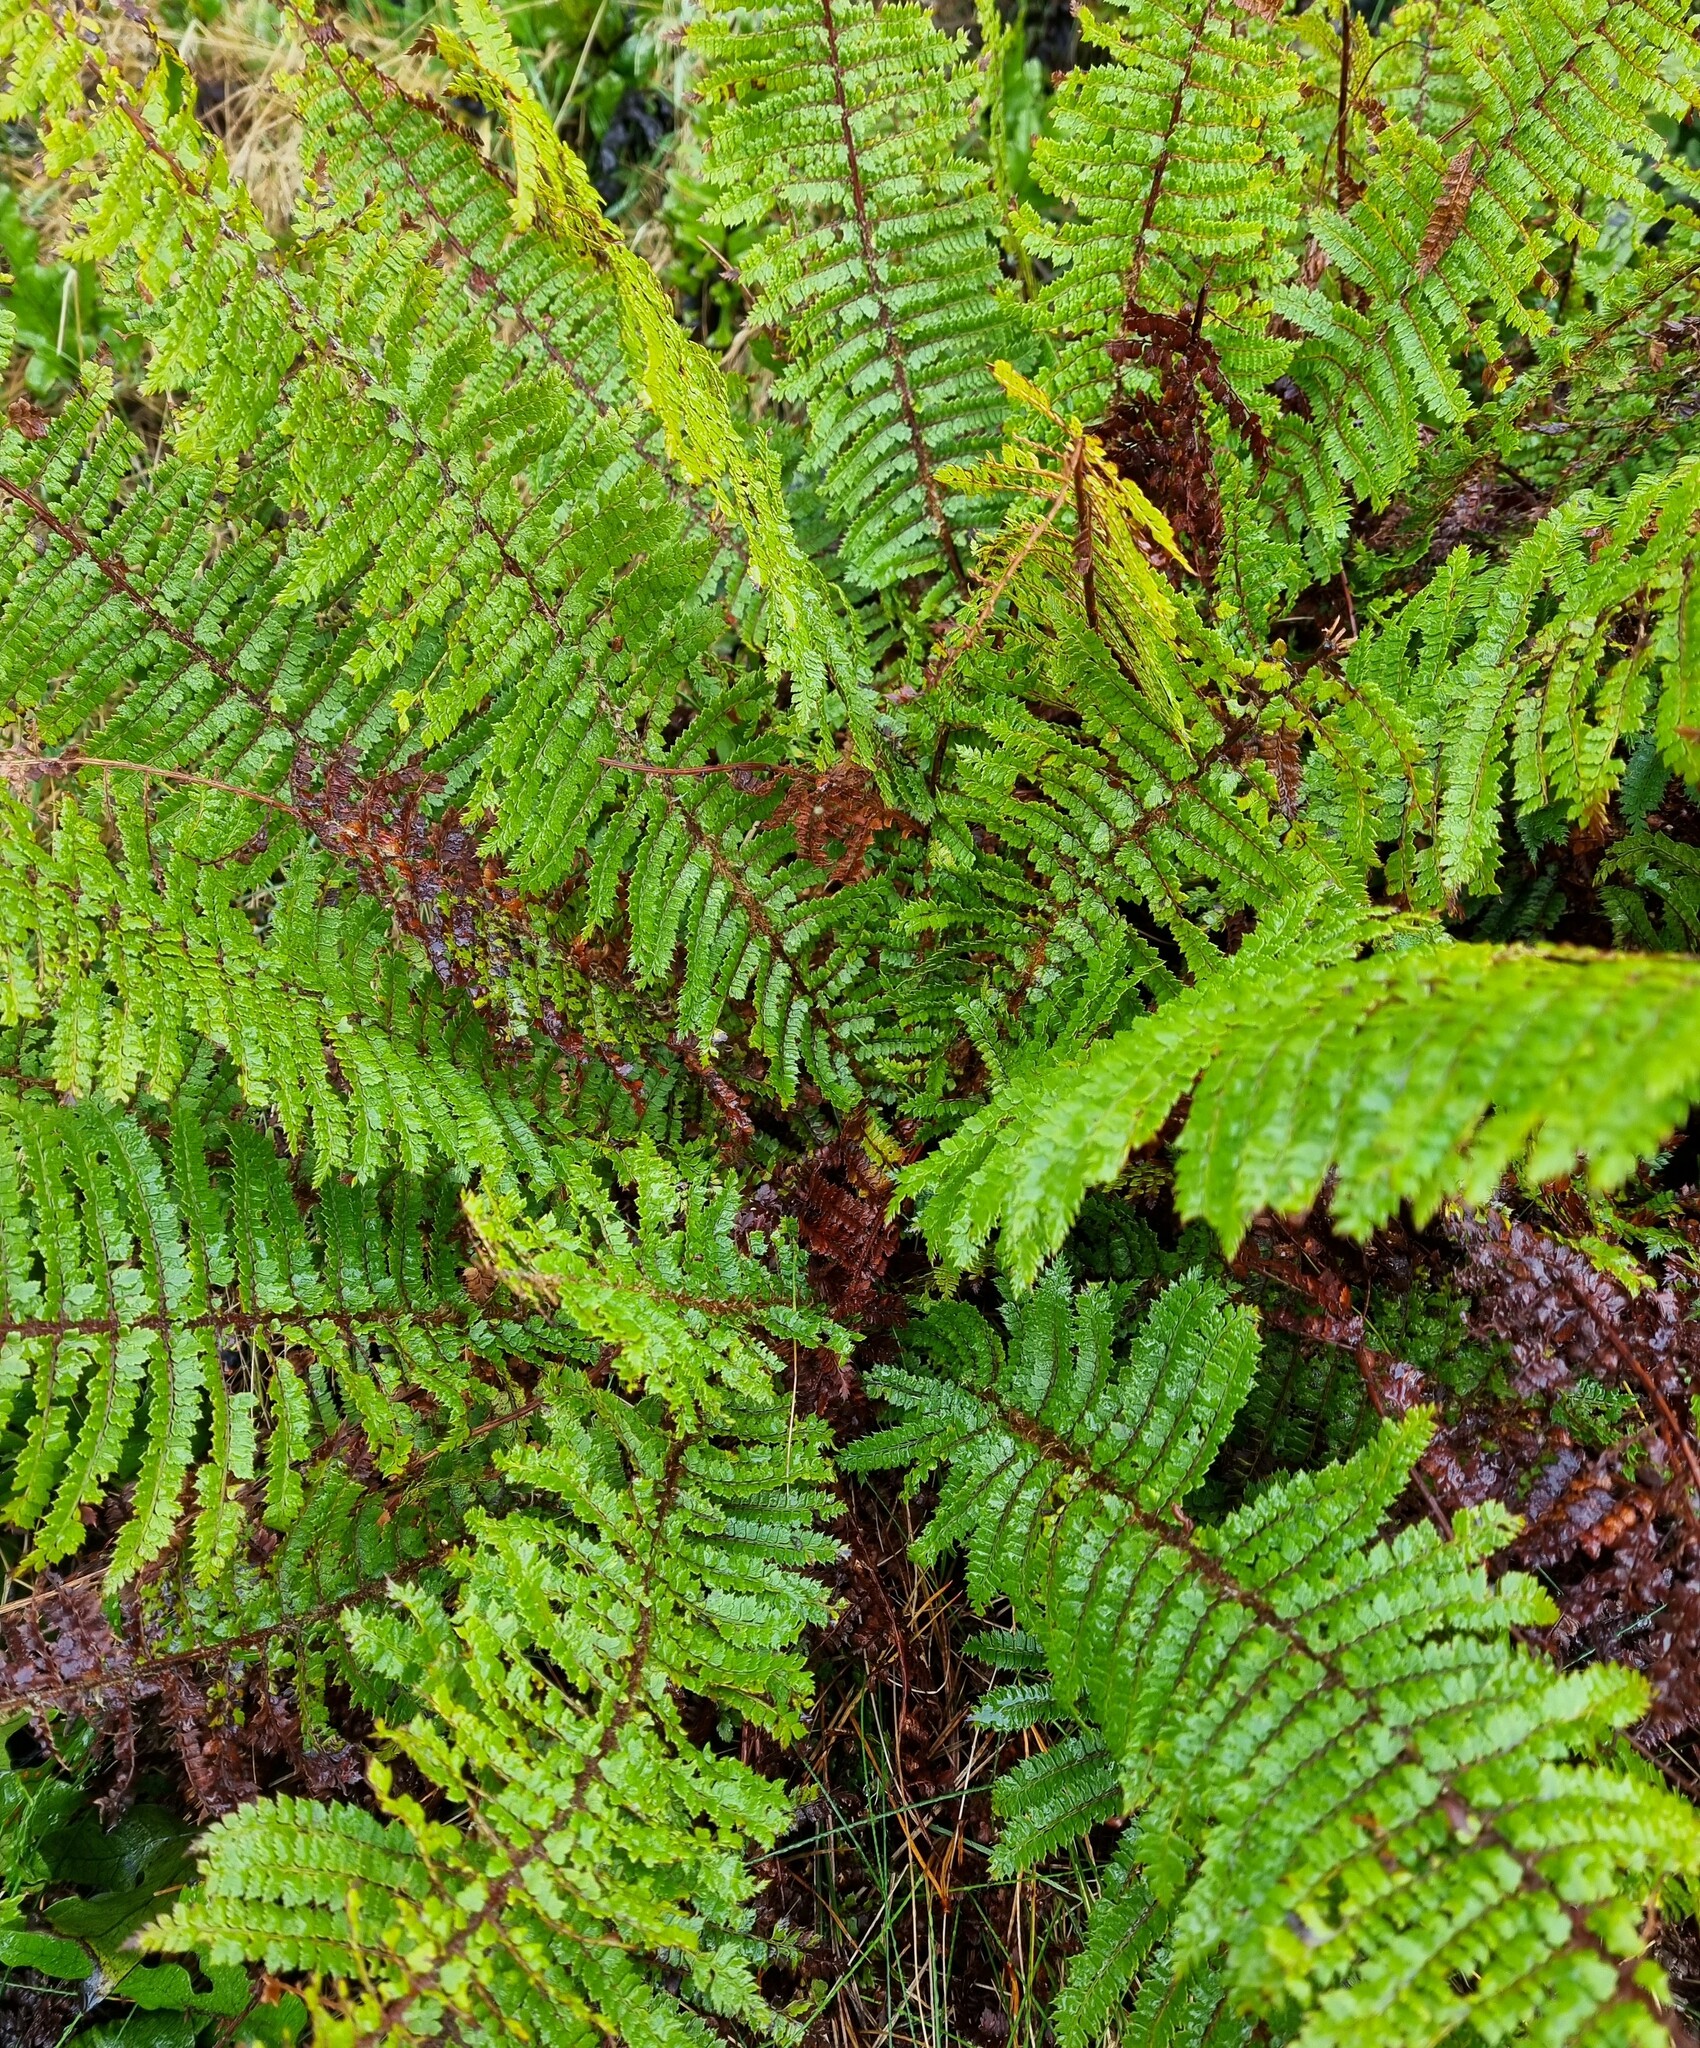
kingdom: Plantae
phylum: Tracheophyta
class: Polypodiopsida
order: Polypodiales
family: Dryopteridaceae
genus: Polystichum
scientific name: Polystichum vestitum
